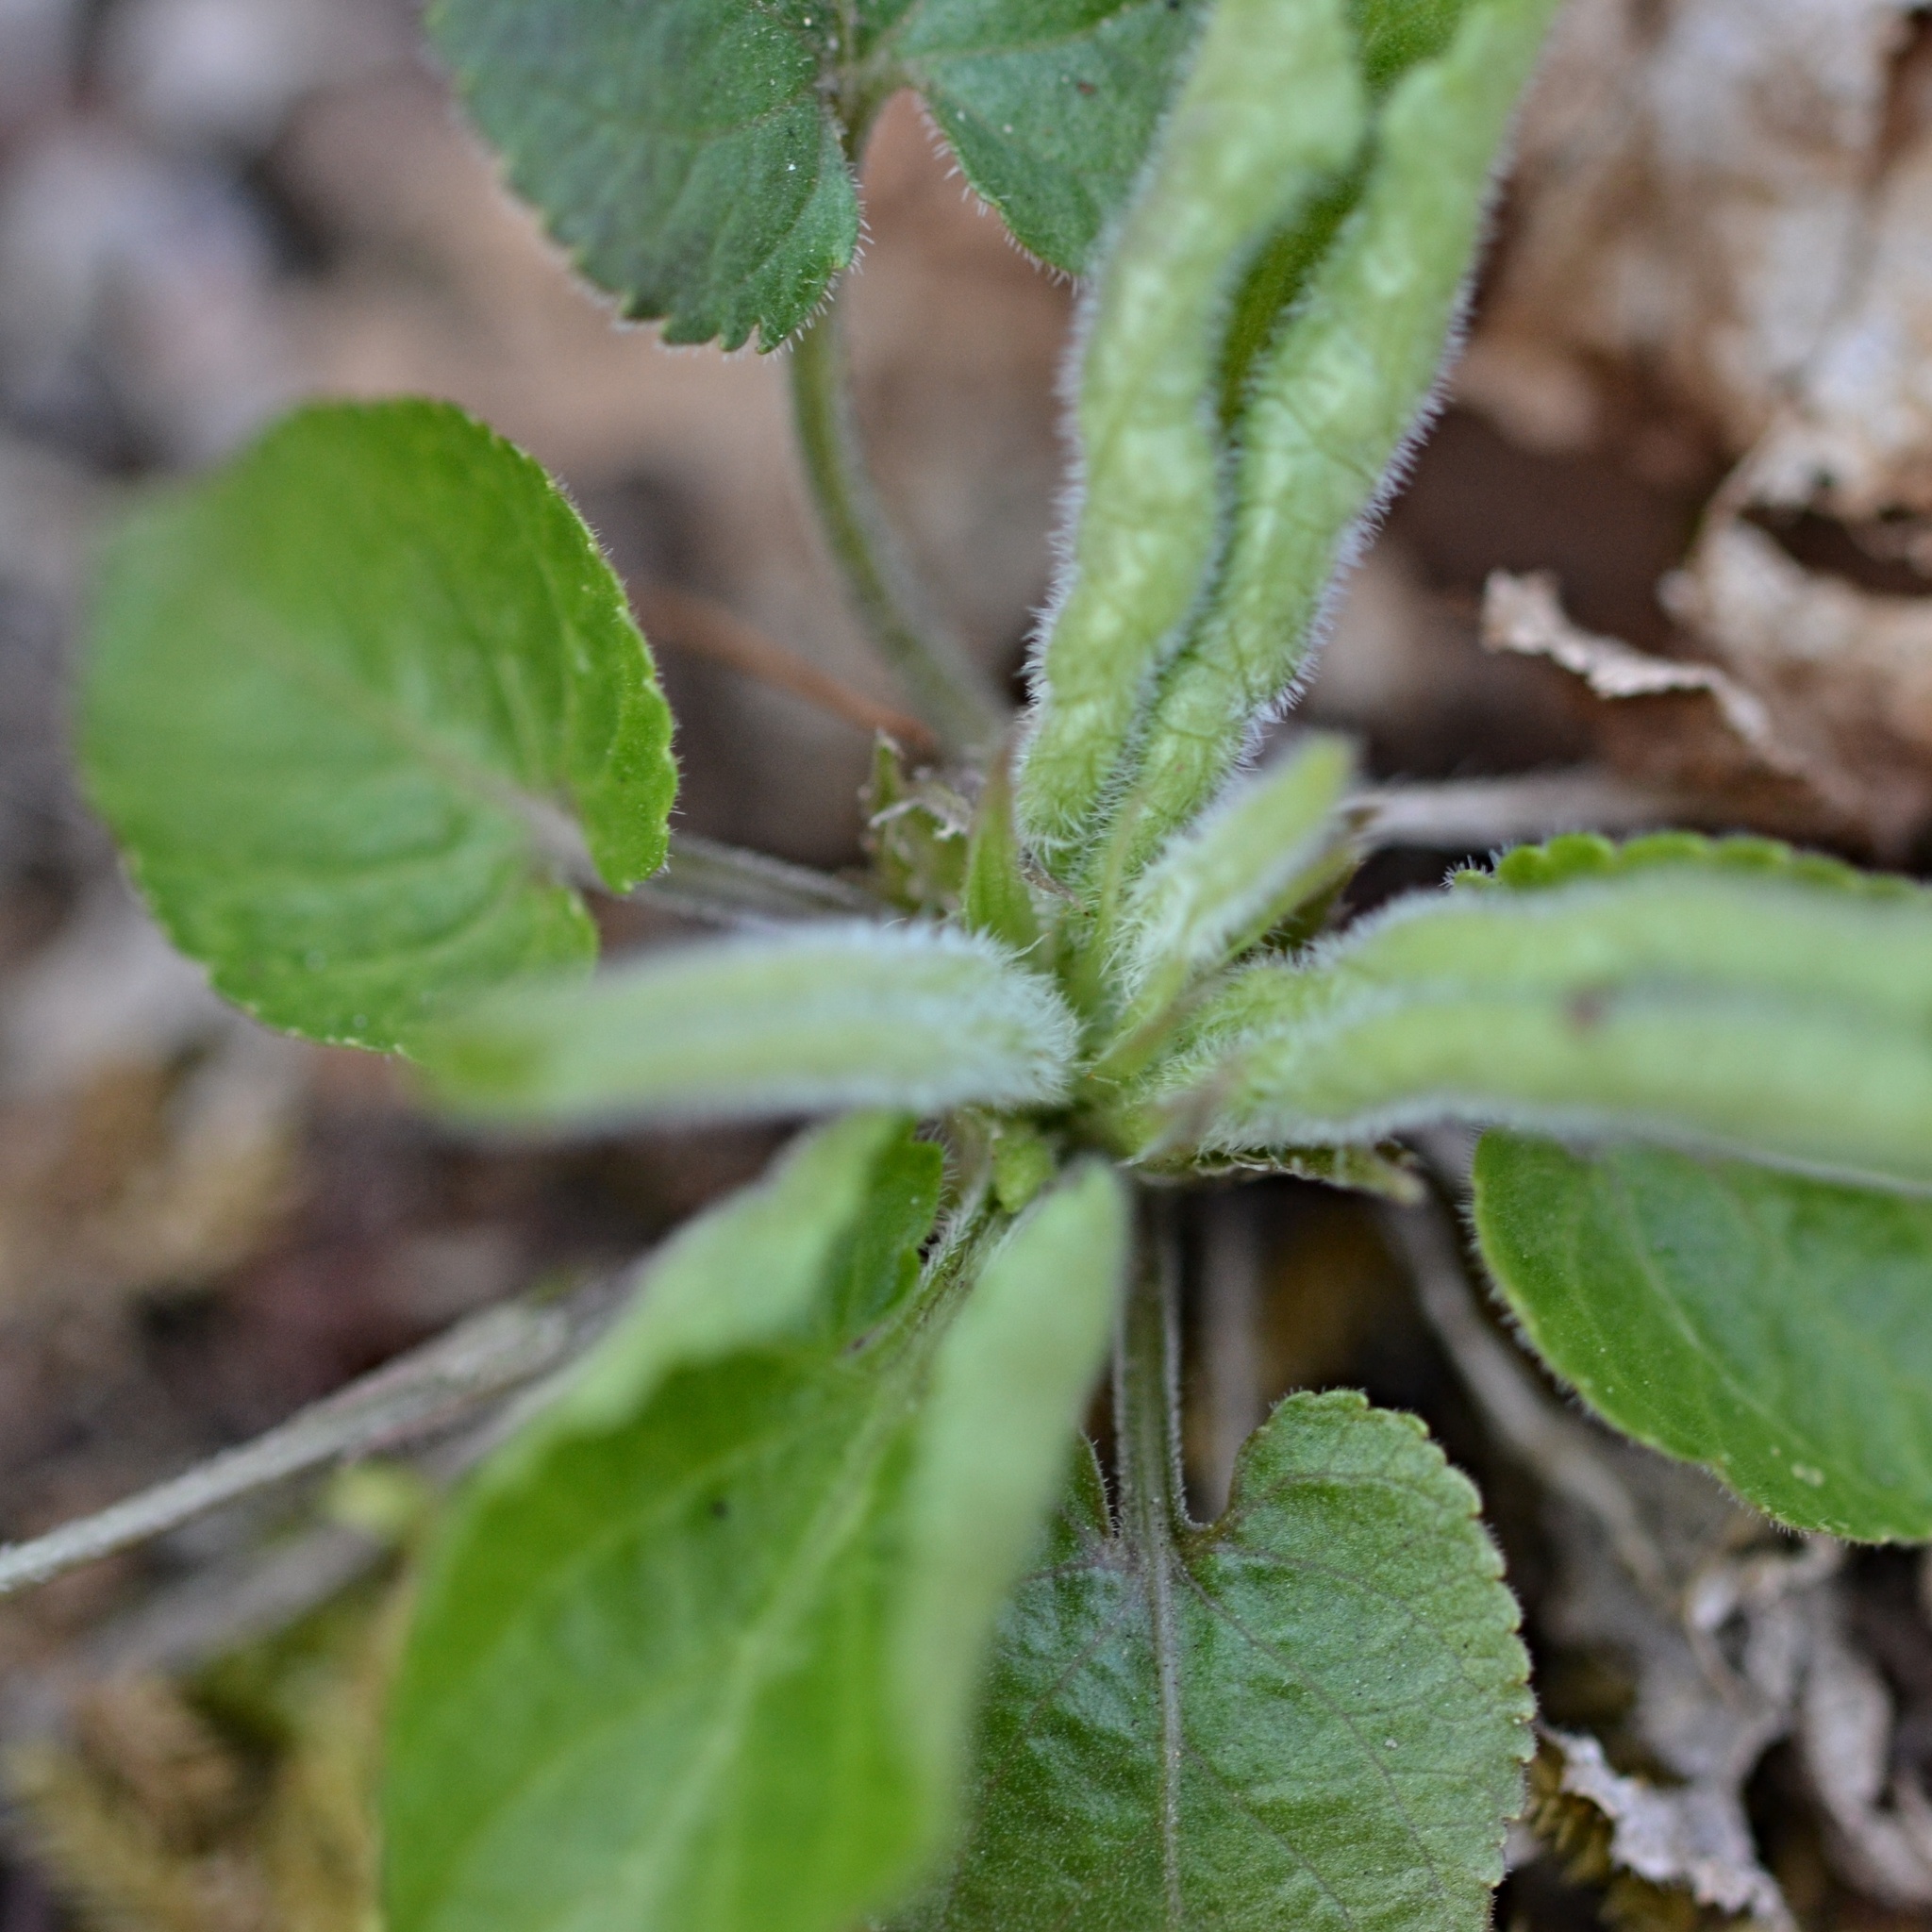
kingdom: Plantae
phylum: Tracheophyta
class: Magnoliopsida
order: Malpighiales
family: Violaceae
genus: Viola
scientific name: Viola collina
